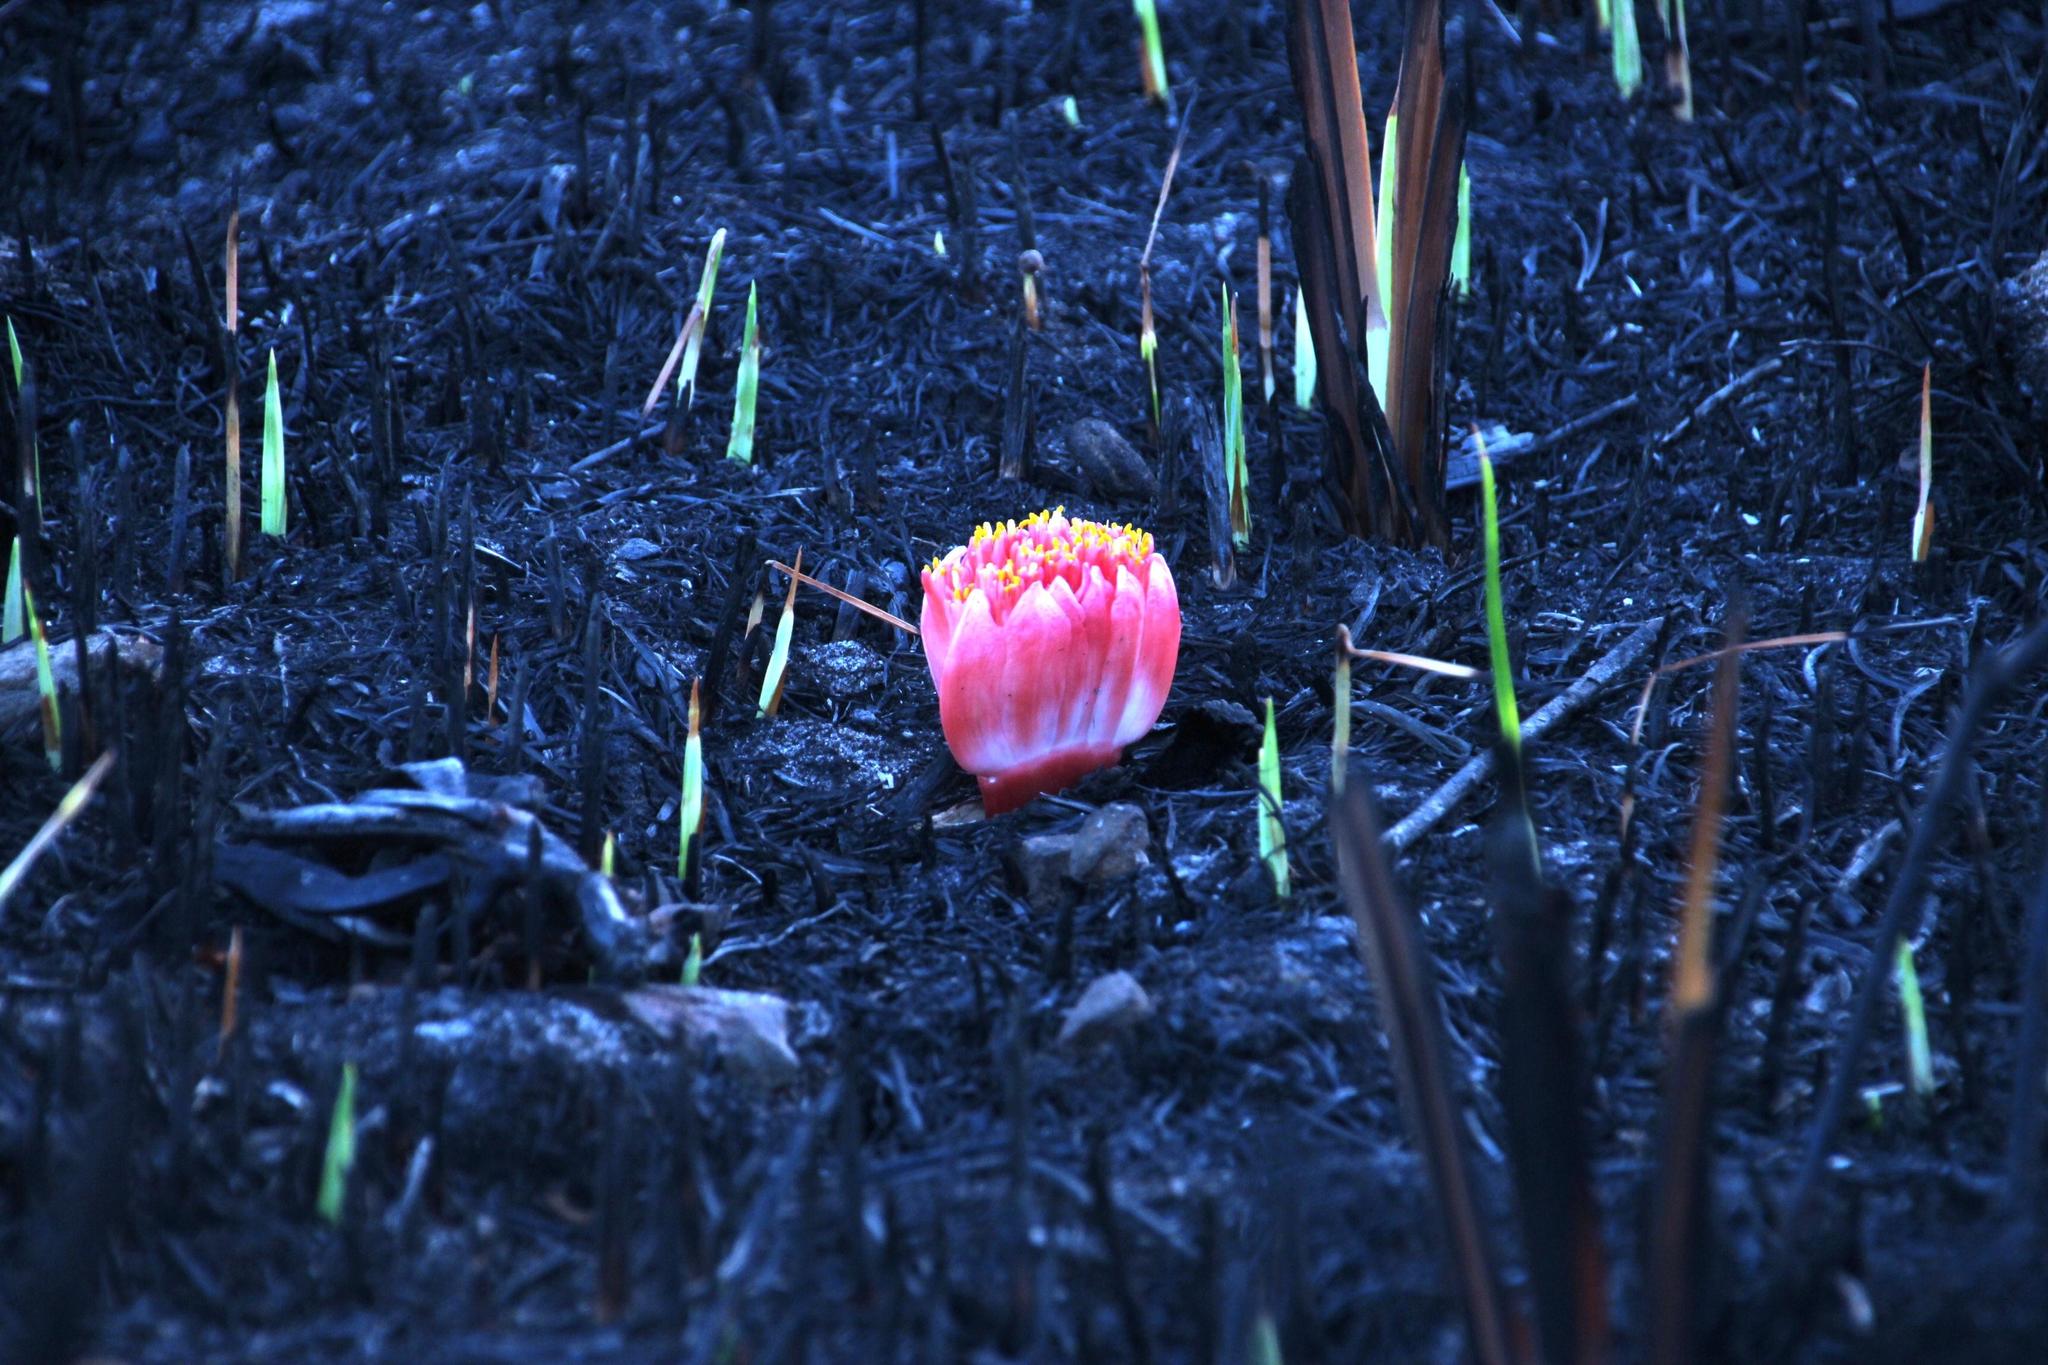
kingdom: Plantae
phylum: Tracheophyta
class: Liliopsida
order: Asparagales
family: Amaryllidaceae
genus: Haemanthus
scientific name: Haemanthus sanguineus
